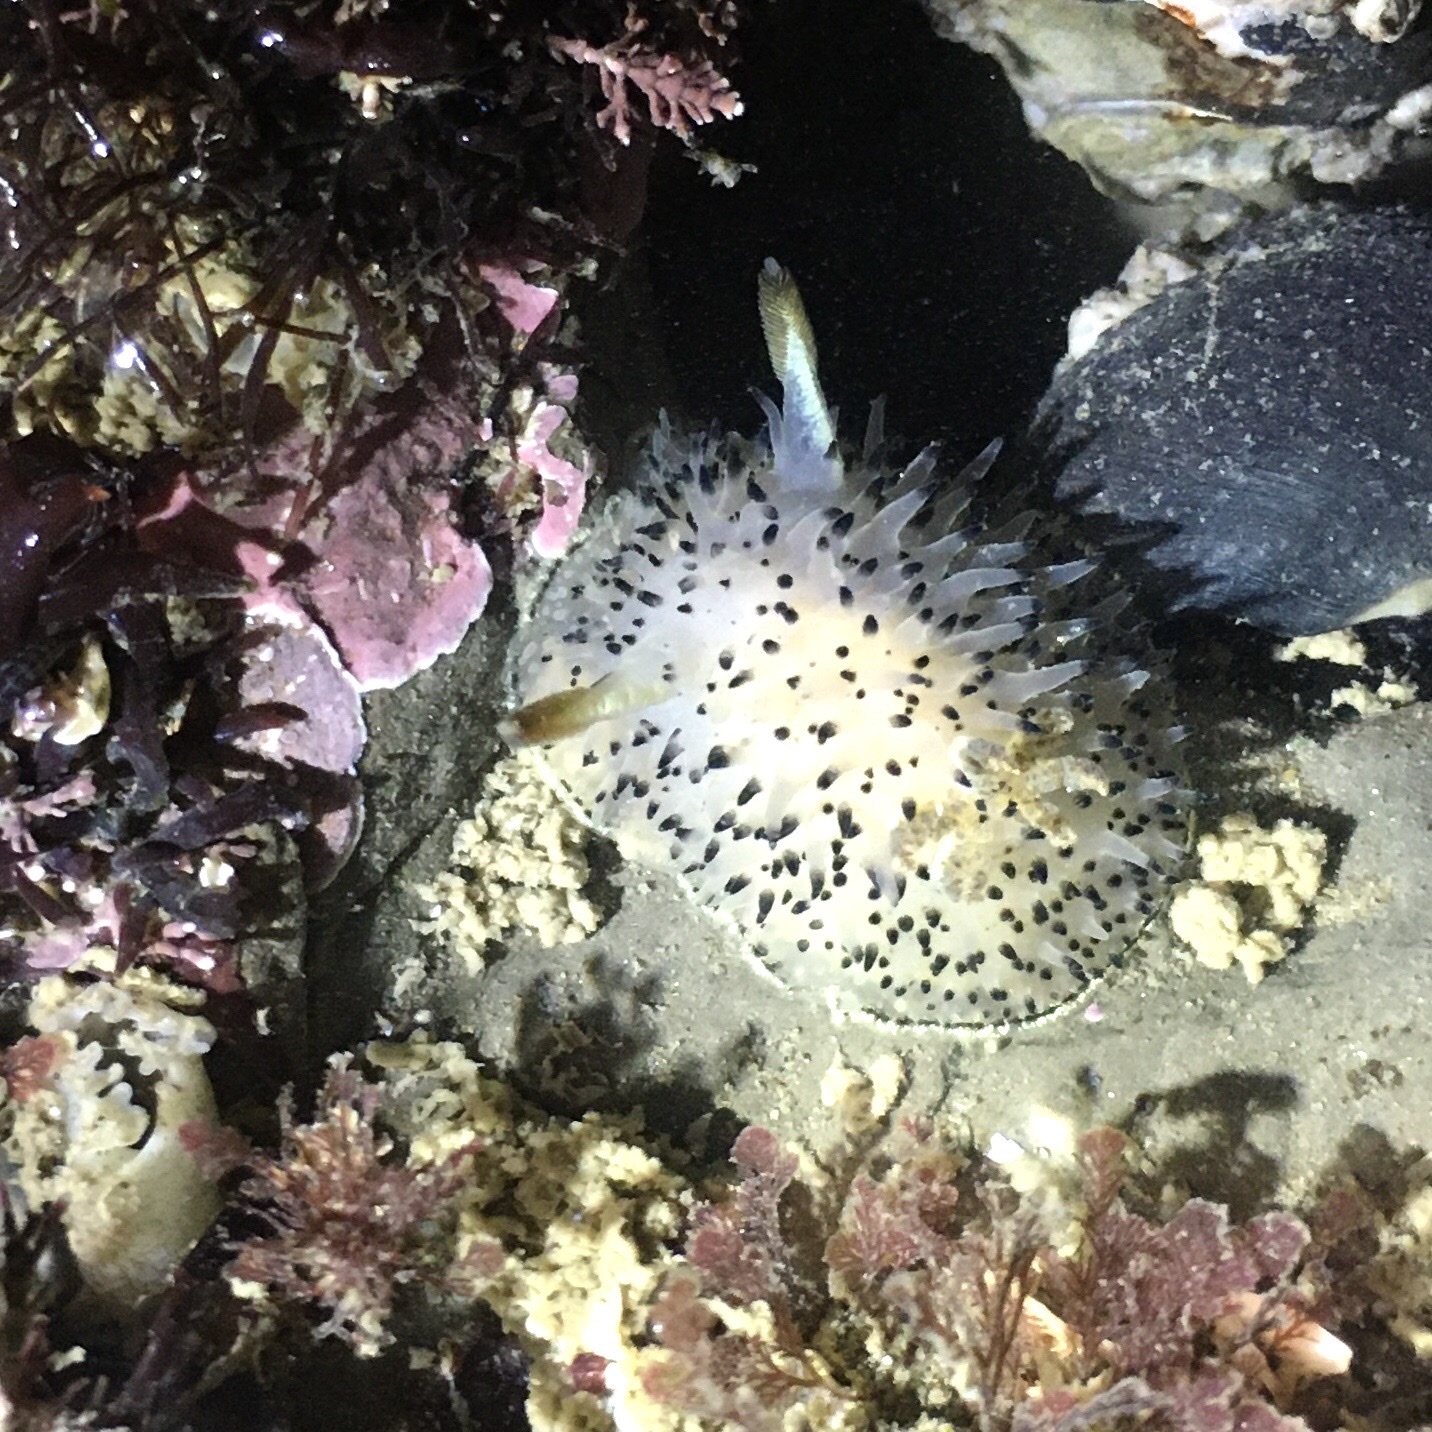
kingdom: Animalia
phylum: Mollusca
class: Gastropoda
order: Nudibranchia
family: Onchidorididae
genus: Acanthodoris
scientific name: Acanthodoris rhodoceras
